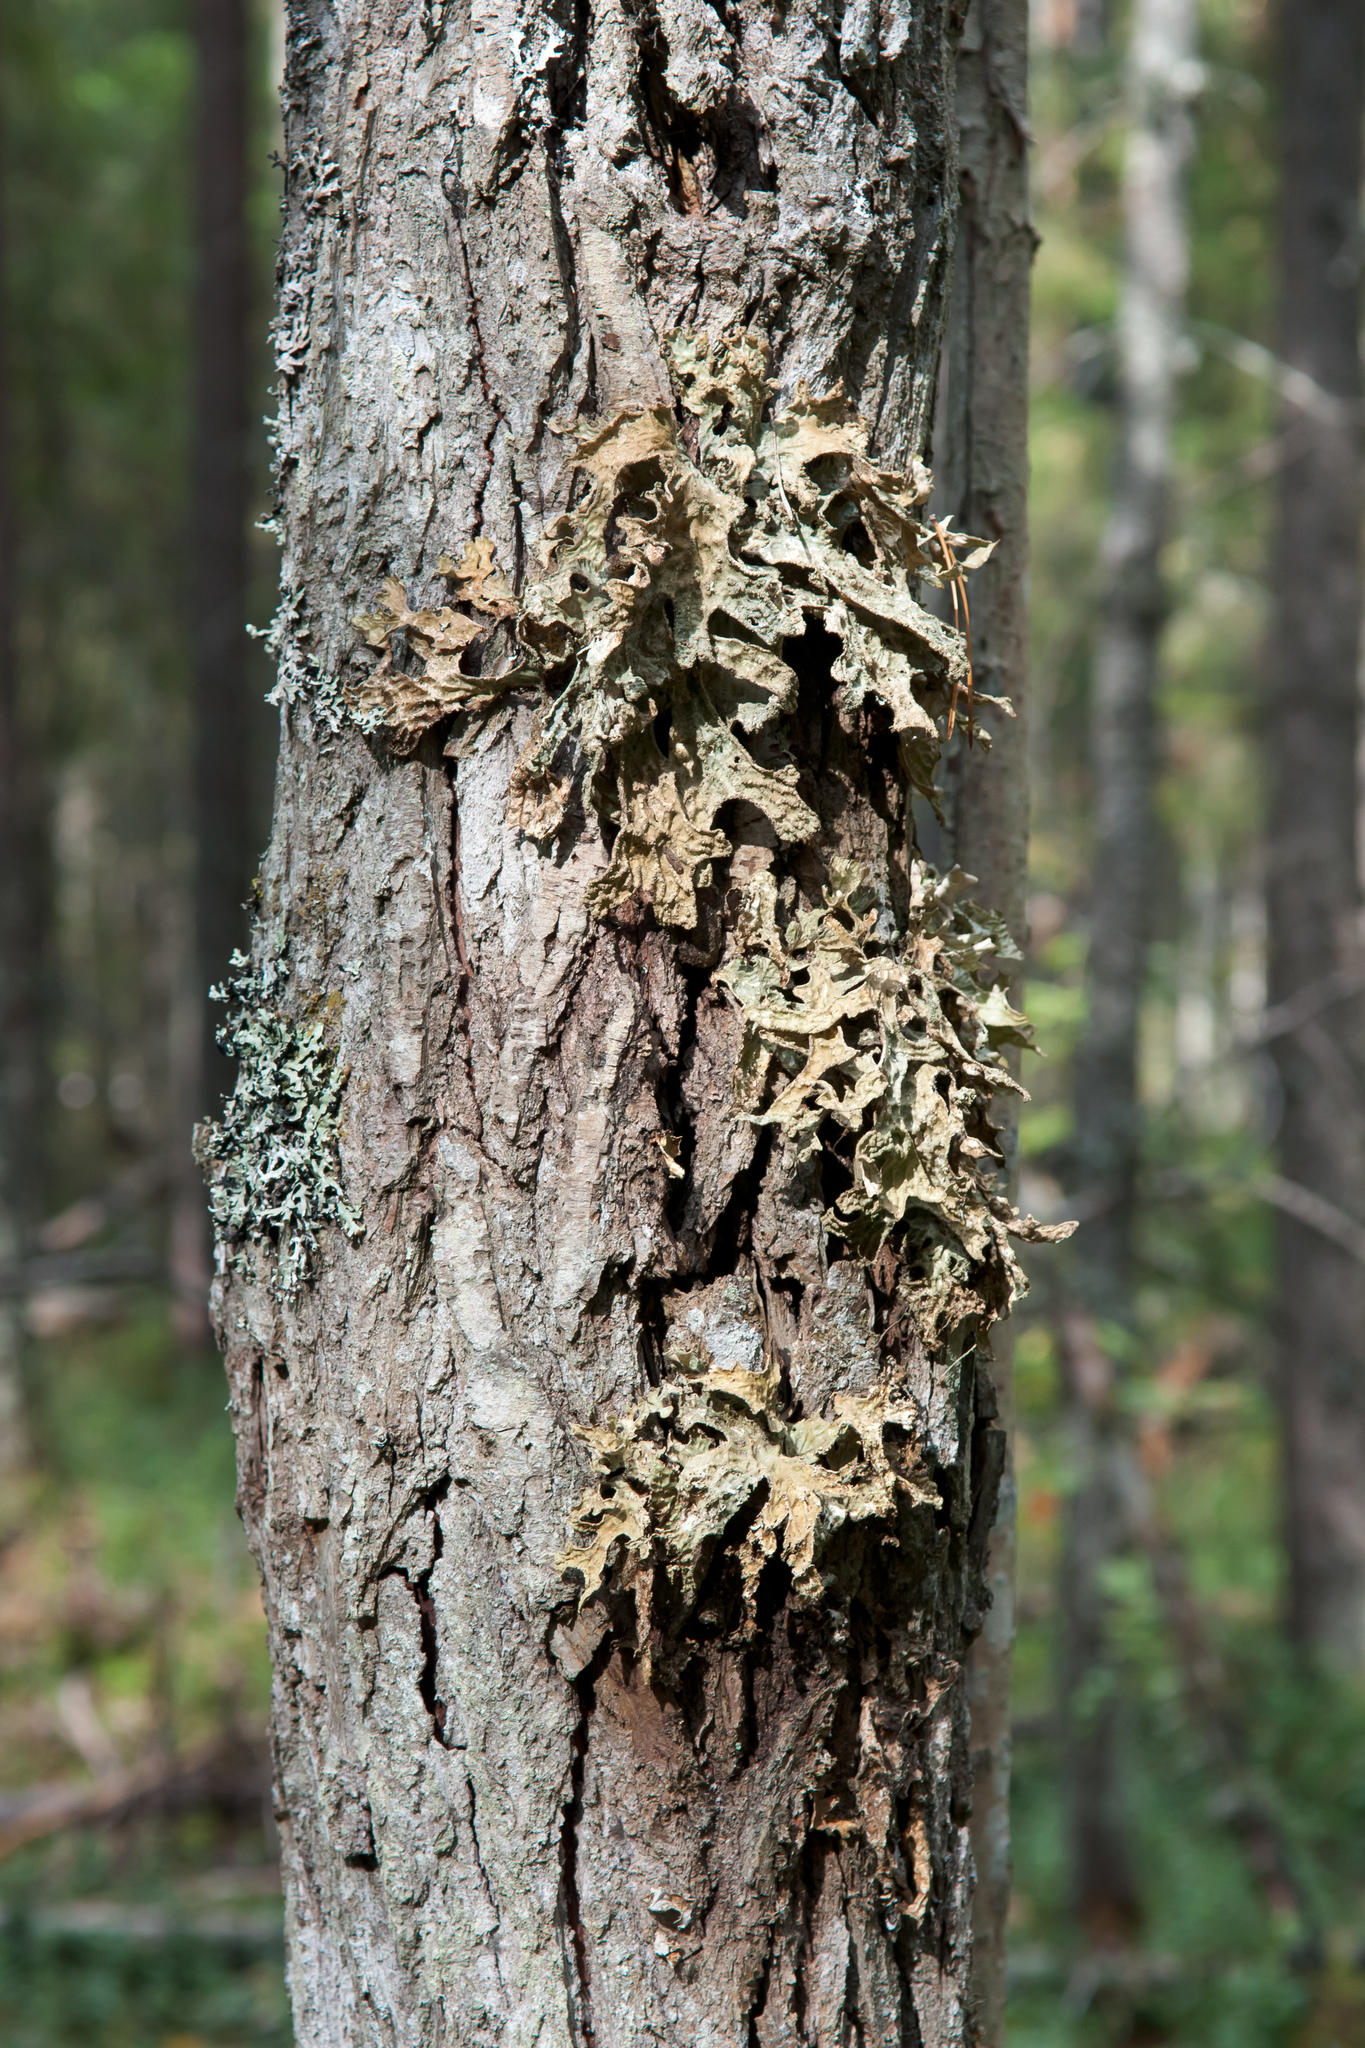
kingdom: Fungi
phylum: Ascomycota
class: Lecanoromycetes
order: Peltigerales
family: Lobariaceae
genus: Lobaria
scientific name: Lobaria pulmonaria
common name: Lungwort
